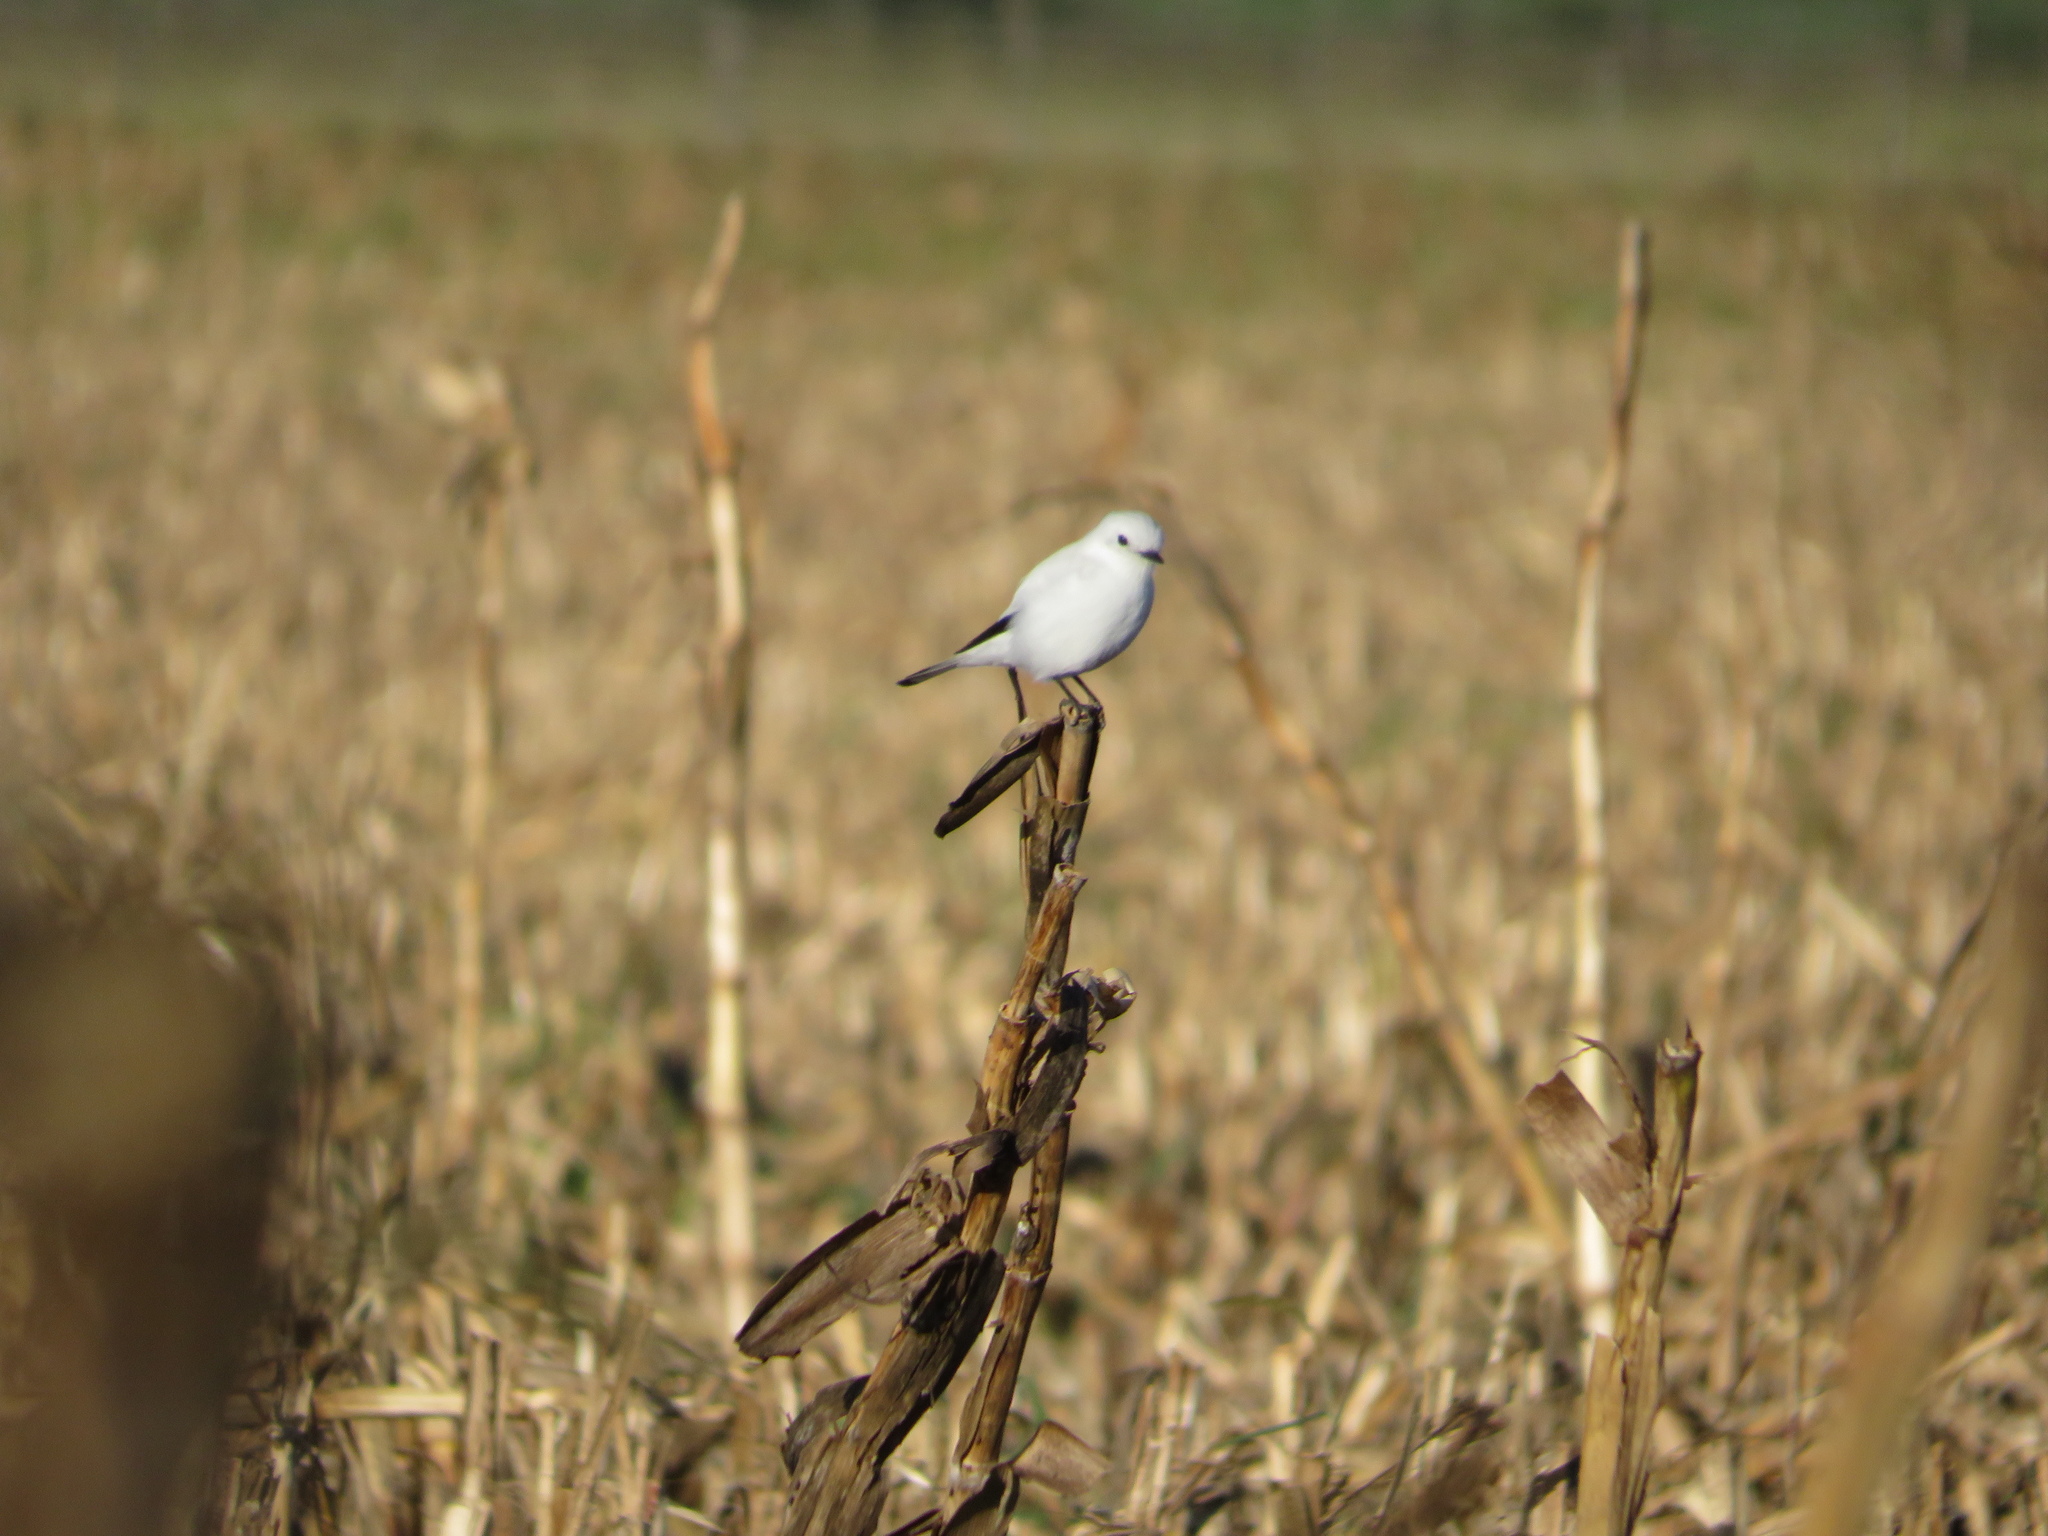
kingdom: Animalia
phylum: Chordata
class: Aves
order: Passeriformes
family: Tyrannidae
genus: Xolmis
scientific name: Xolmis irupero
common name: White monjita
